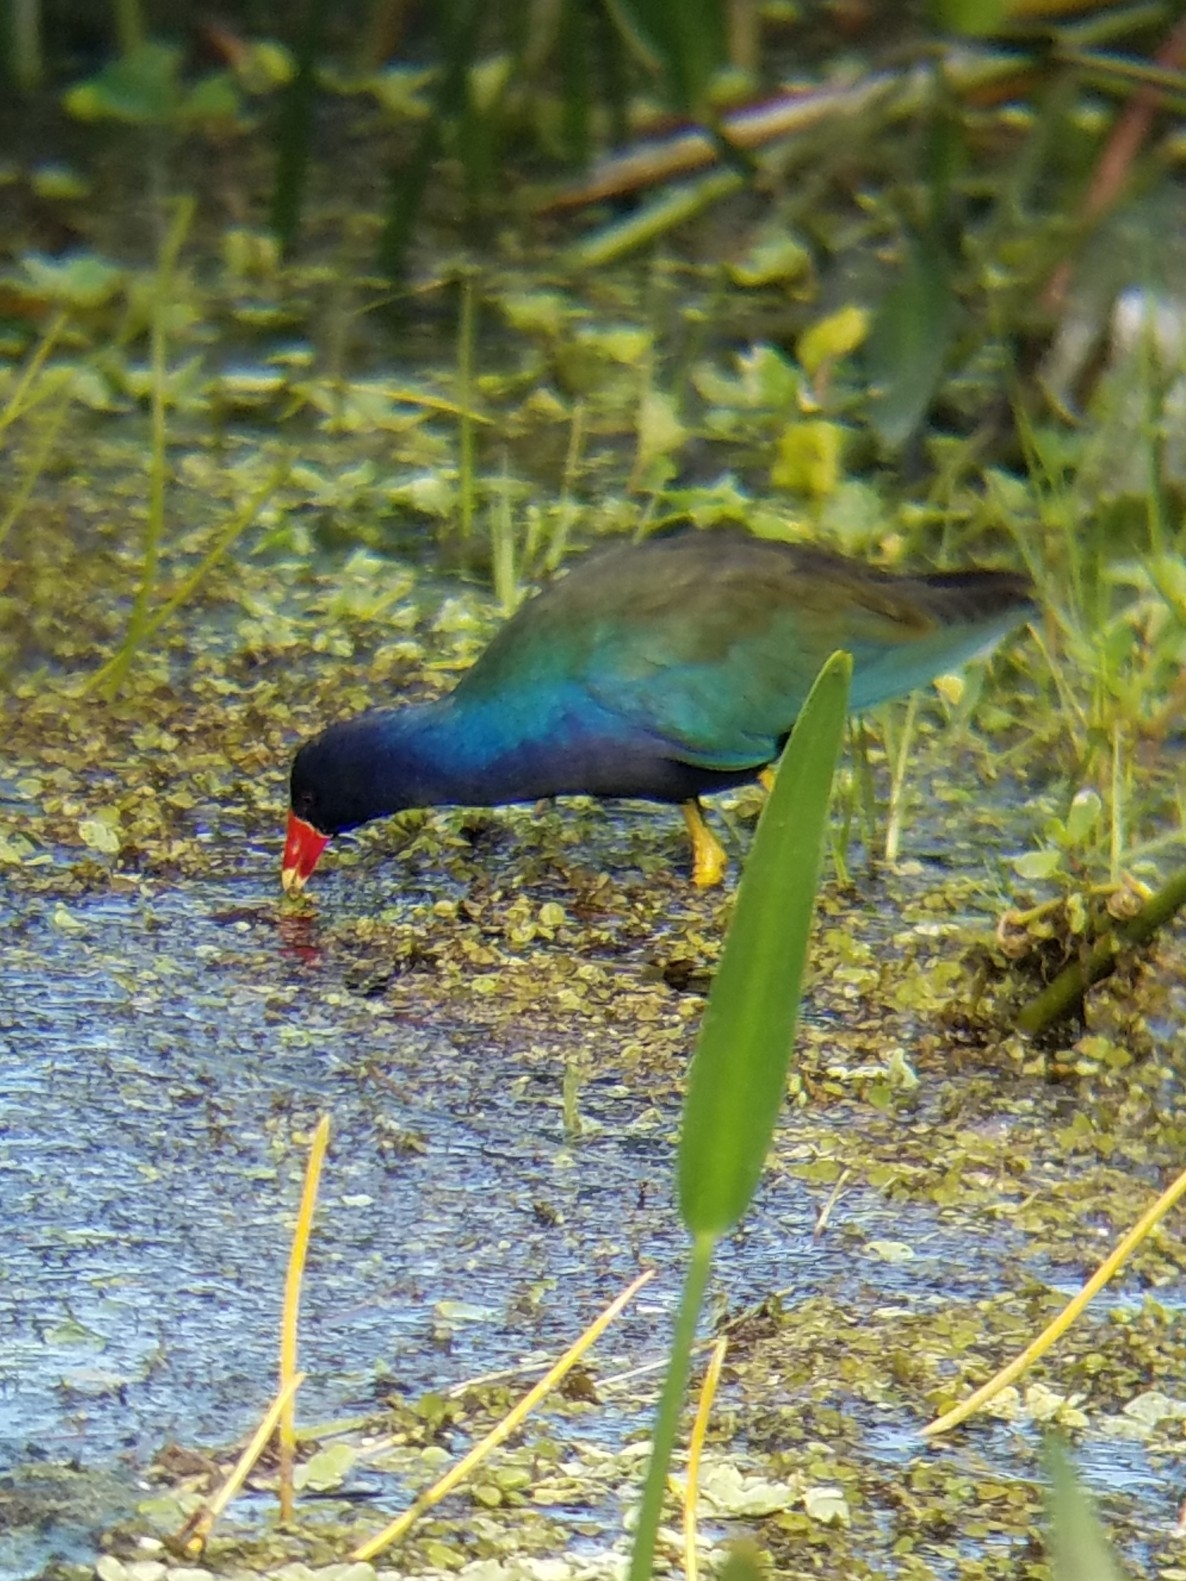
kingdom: Animalia
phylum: Chordata
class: Aves
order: Gruiformes
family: Rallidae
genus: Porphyrio
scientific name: Porphyrio martinica
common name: Purple gallinule
